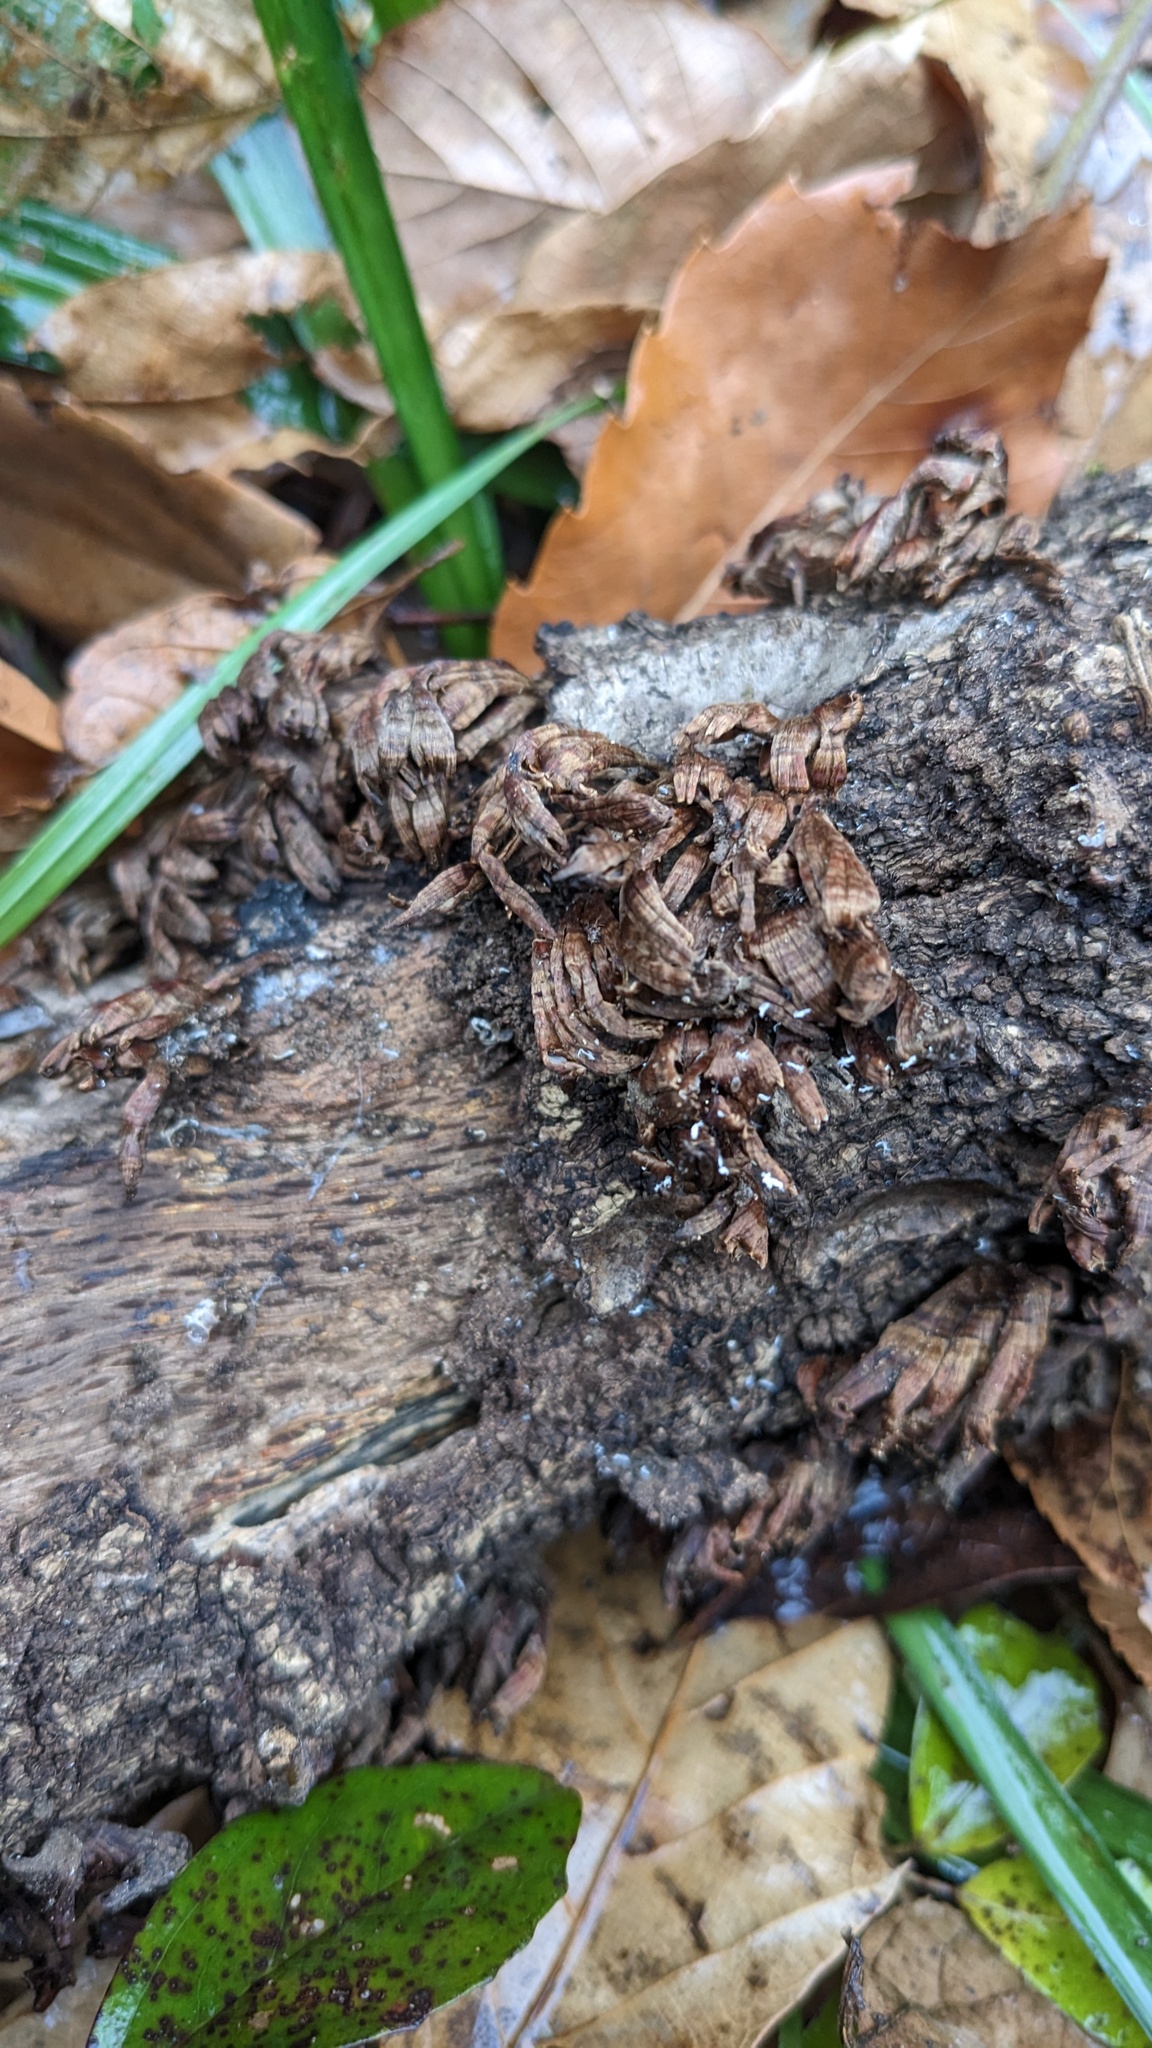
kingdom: Fungi
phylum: Basidiomycota
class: Agaricomycetes
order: Russulales
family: Stereaceae
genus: Xylobolus
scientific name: Xylobolus spectabilis
